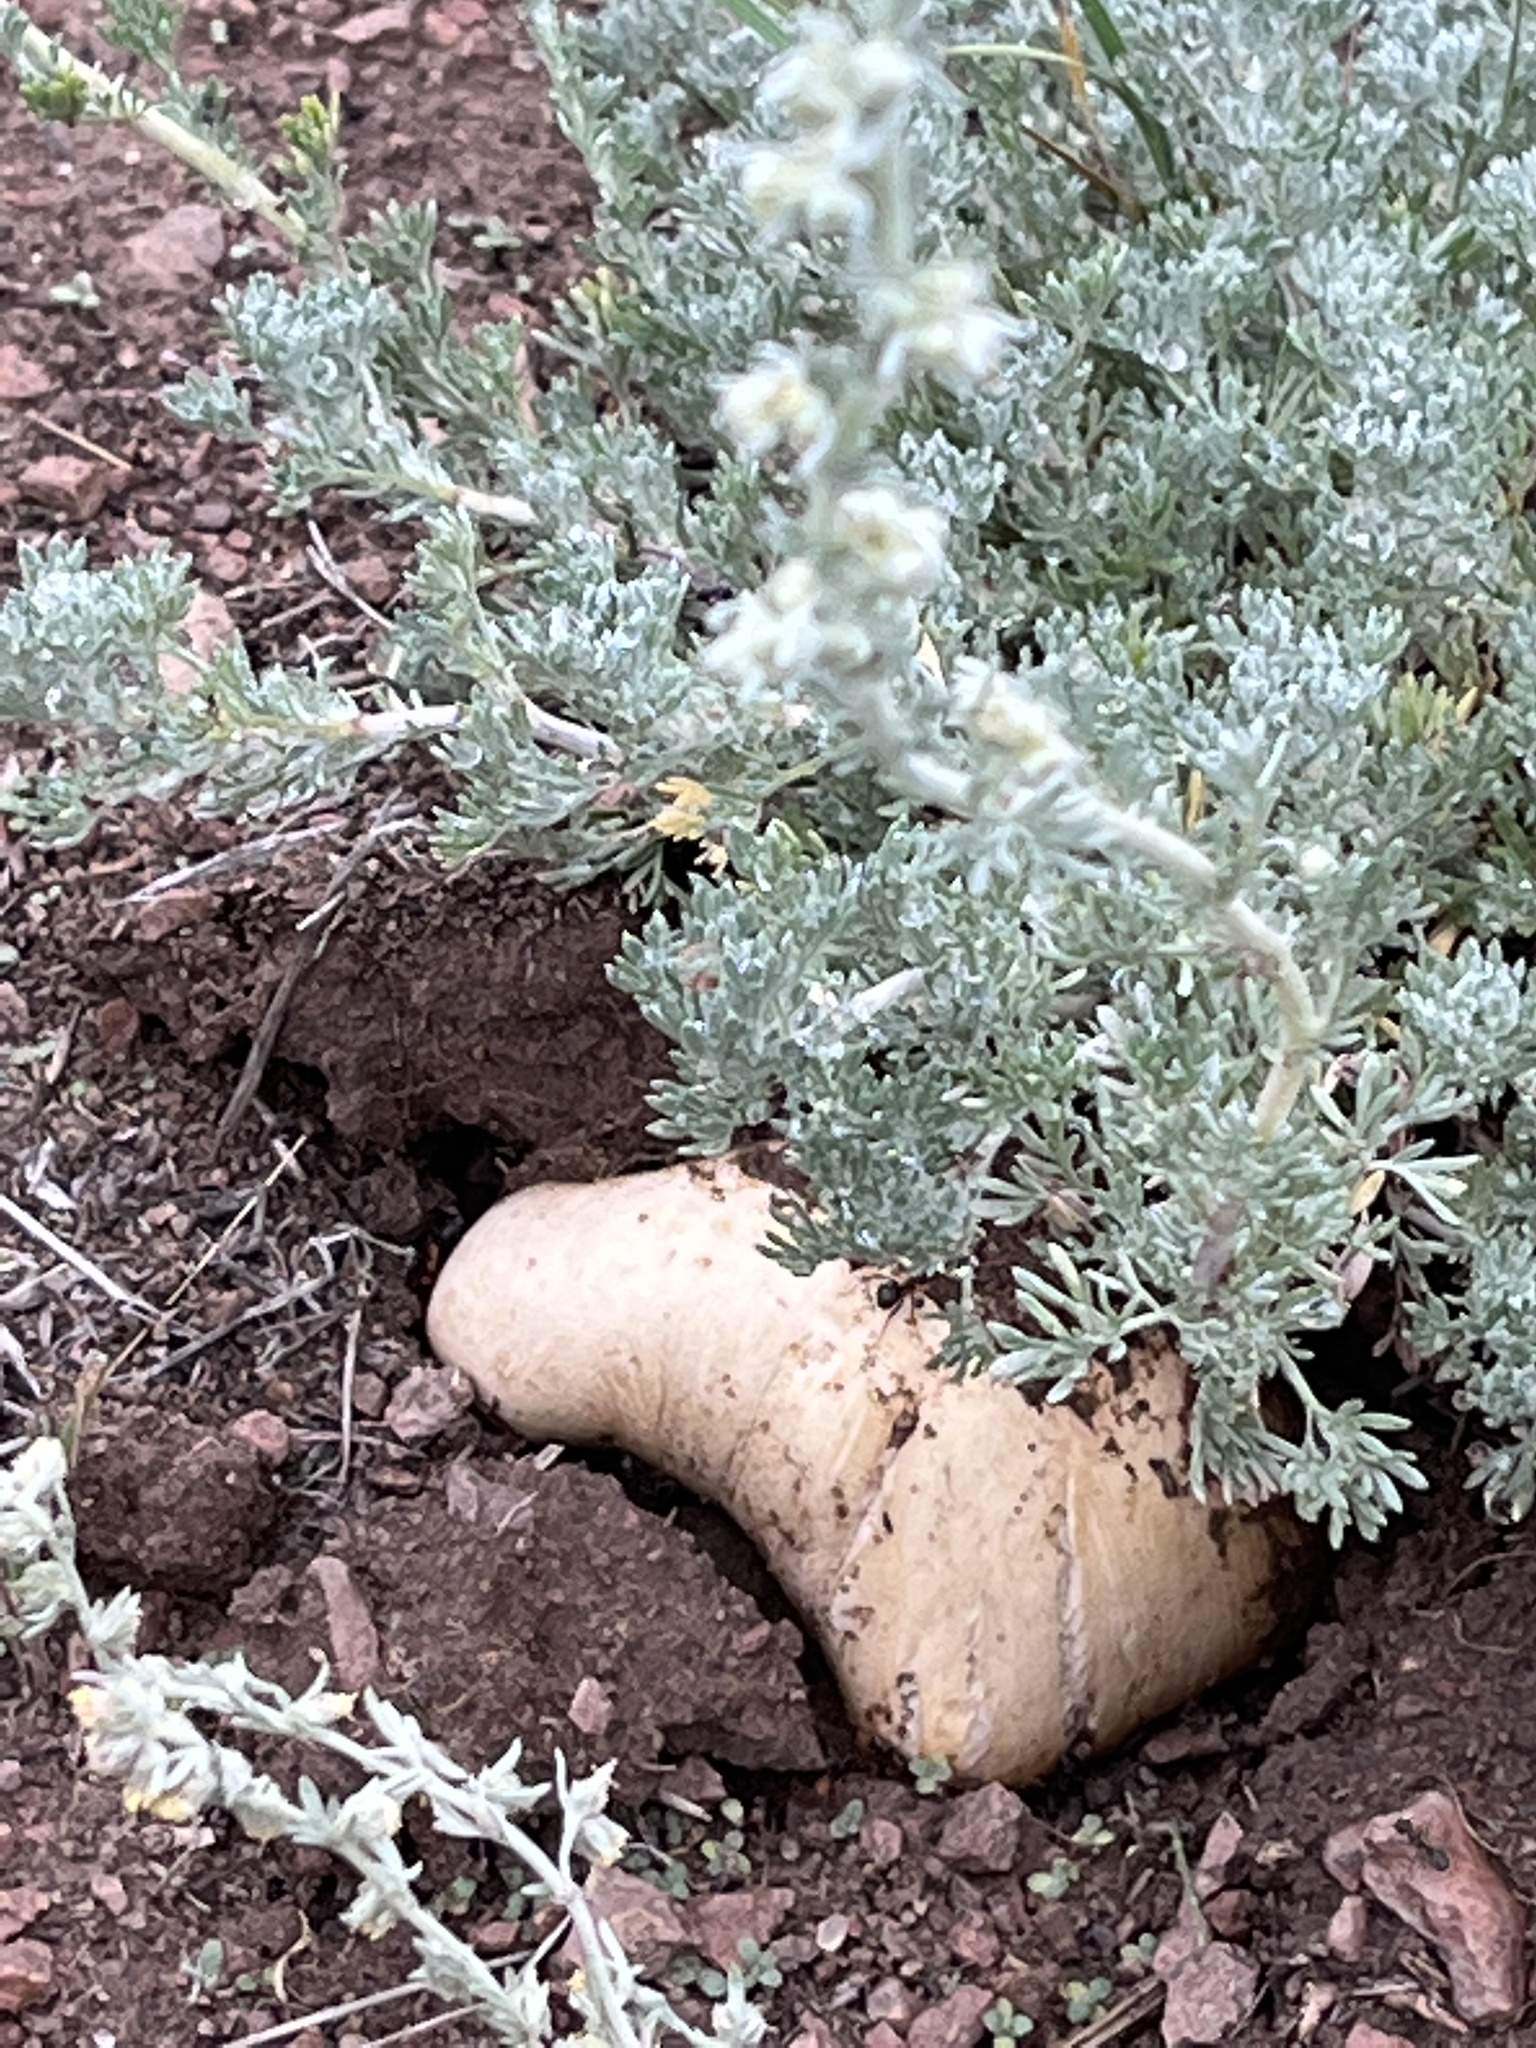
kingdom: Plantae
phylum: Tracheophyta
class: Magnoliopsida
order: Asterales
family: Asteraceae
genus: Artemisia
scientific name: Artemisia frigida
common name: Prairie sagewort
